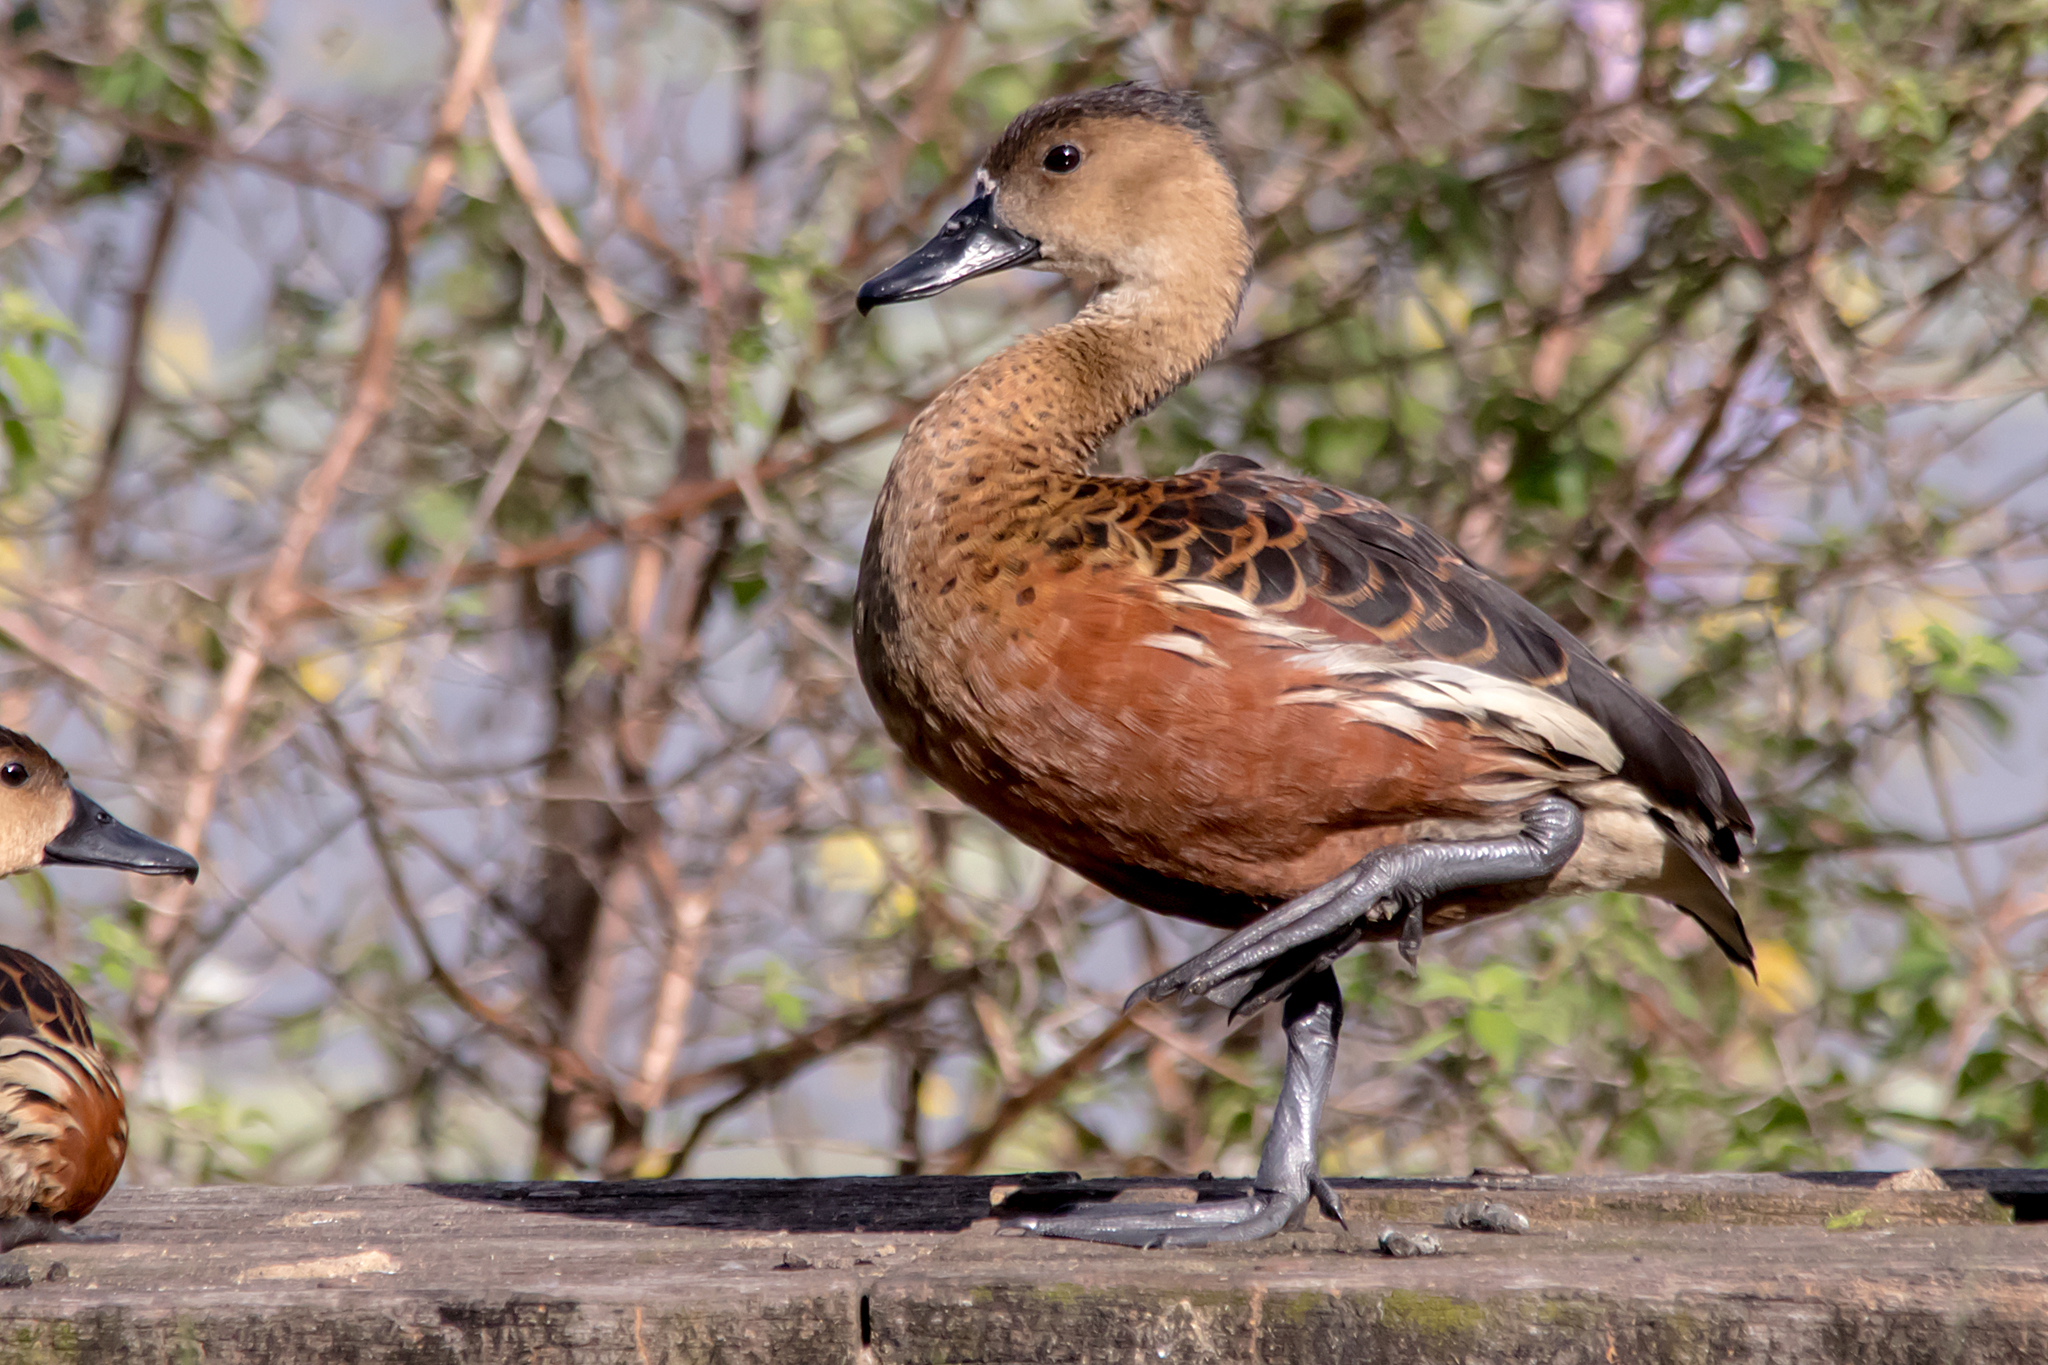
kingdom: Animalia
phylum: Chordata
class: Aves
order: Anseriformes
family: Anatidae
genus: Dendrocygna
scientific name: Dendrocygna arcuata
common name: Wandering whistling-duck
